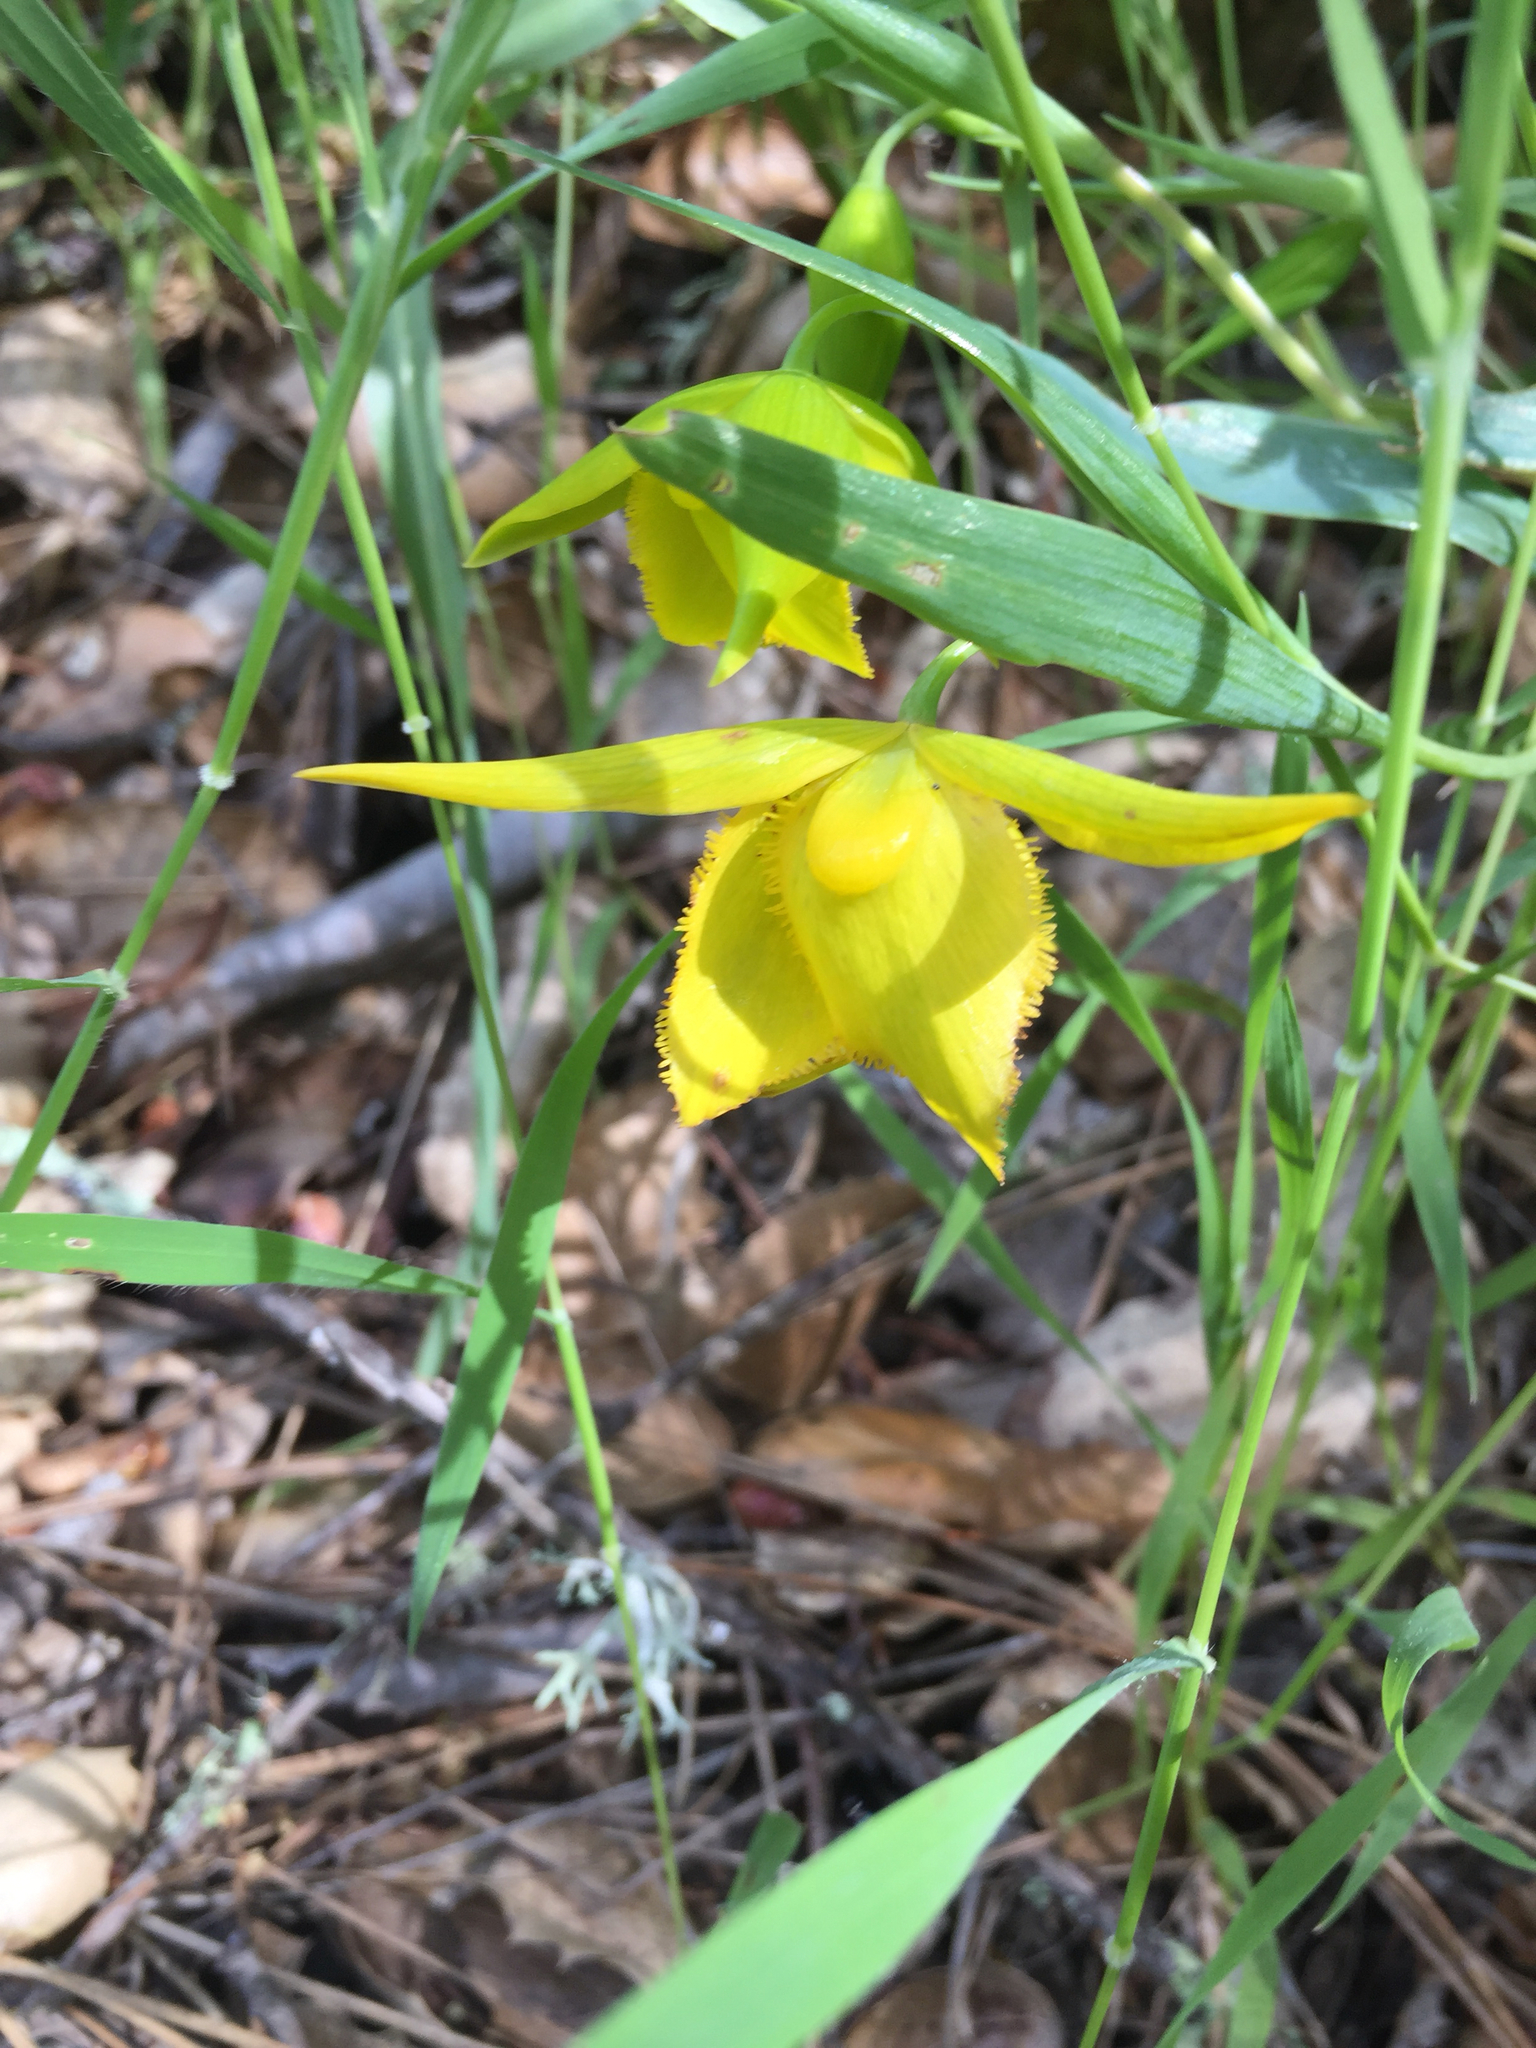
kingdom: Plantae
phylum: Tracheophyta
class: Liliopsida
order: Liliales
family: Liliaceae
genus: Calochortus
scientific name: Calochortus amabilis
